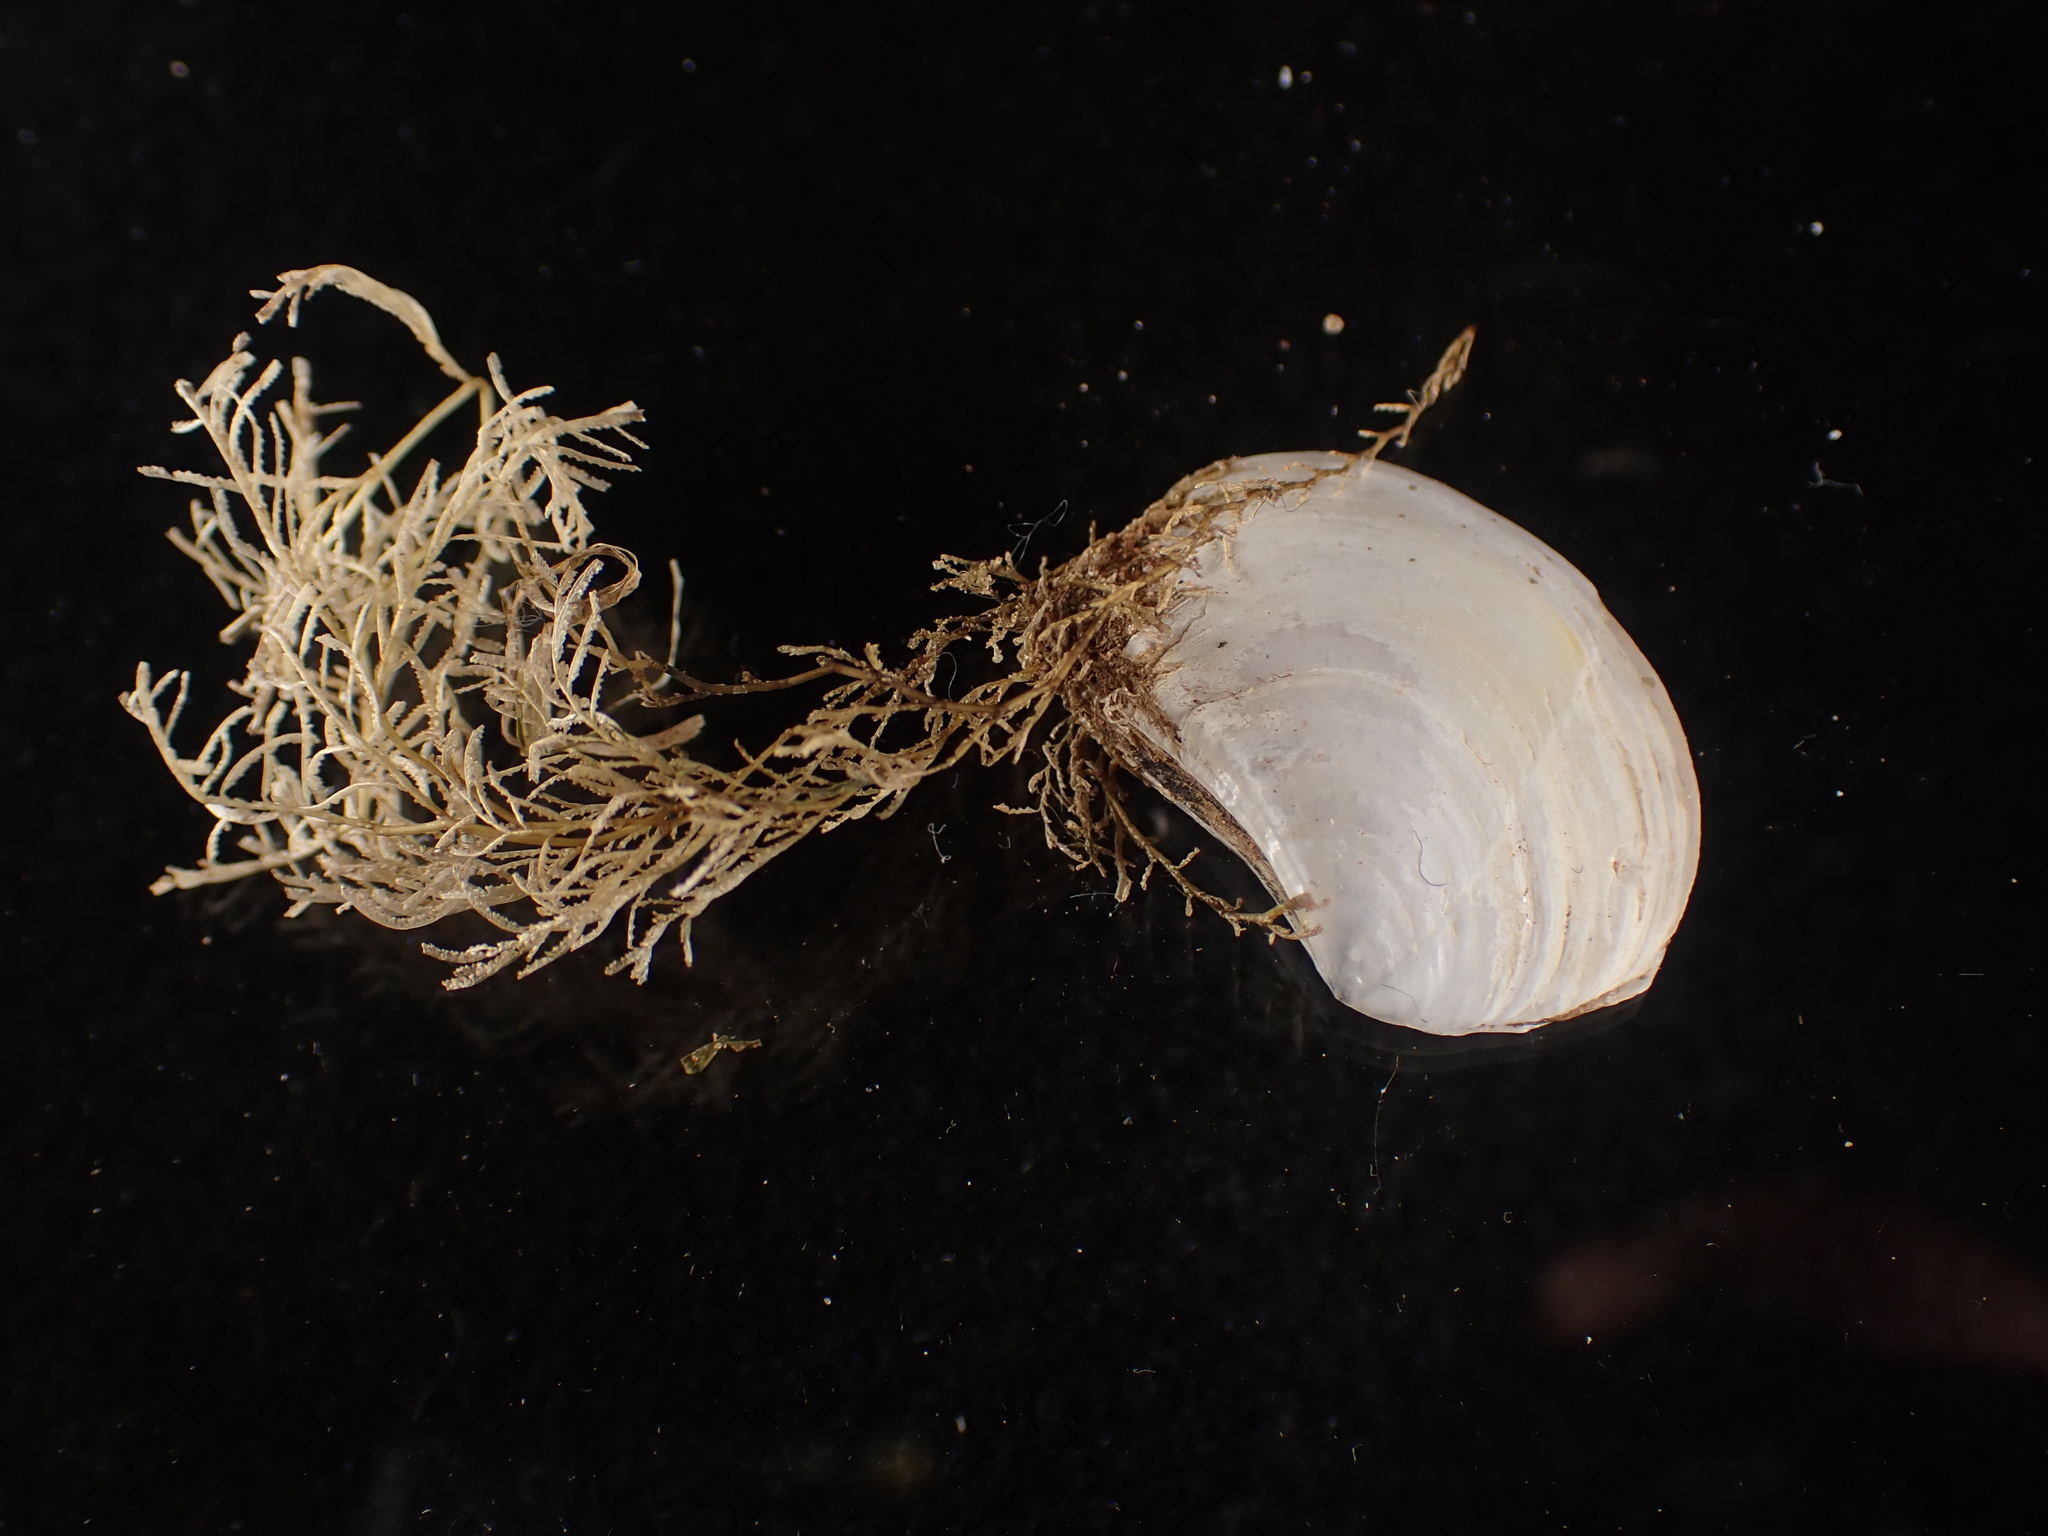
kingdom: Animalia
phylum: Mollusca
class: Bivalvia
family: Pandoridae
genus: Pandora
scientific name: Pandora gouldiana
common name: Rounded pandora
